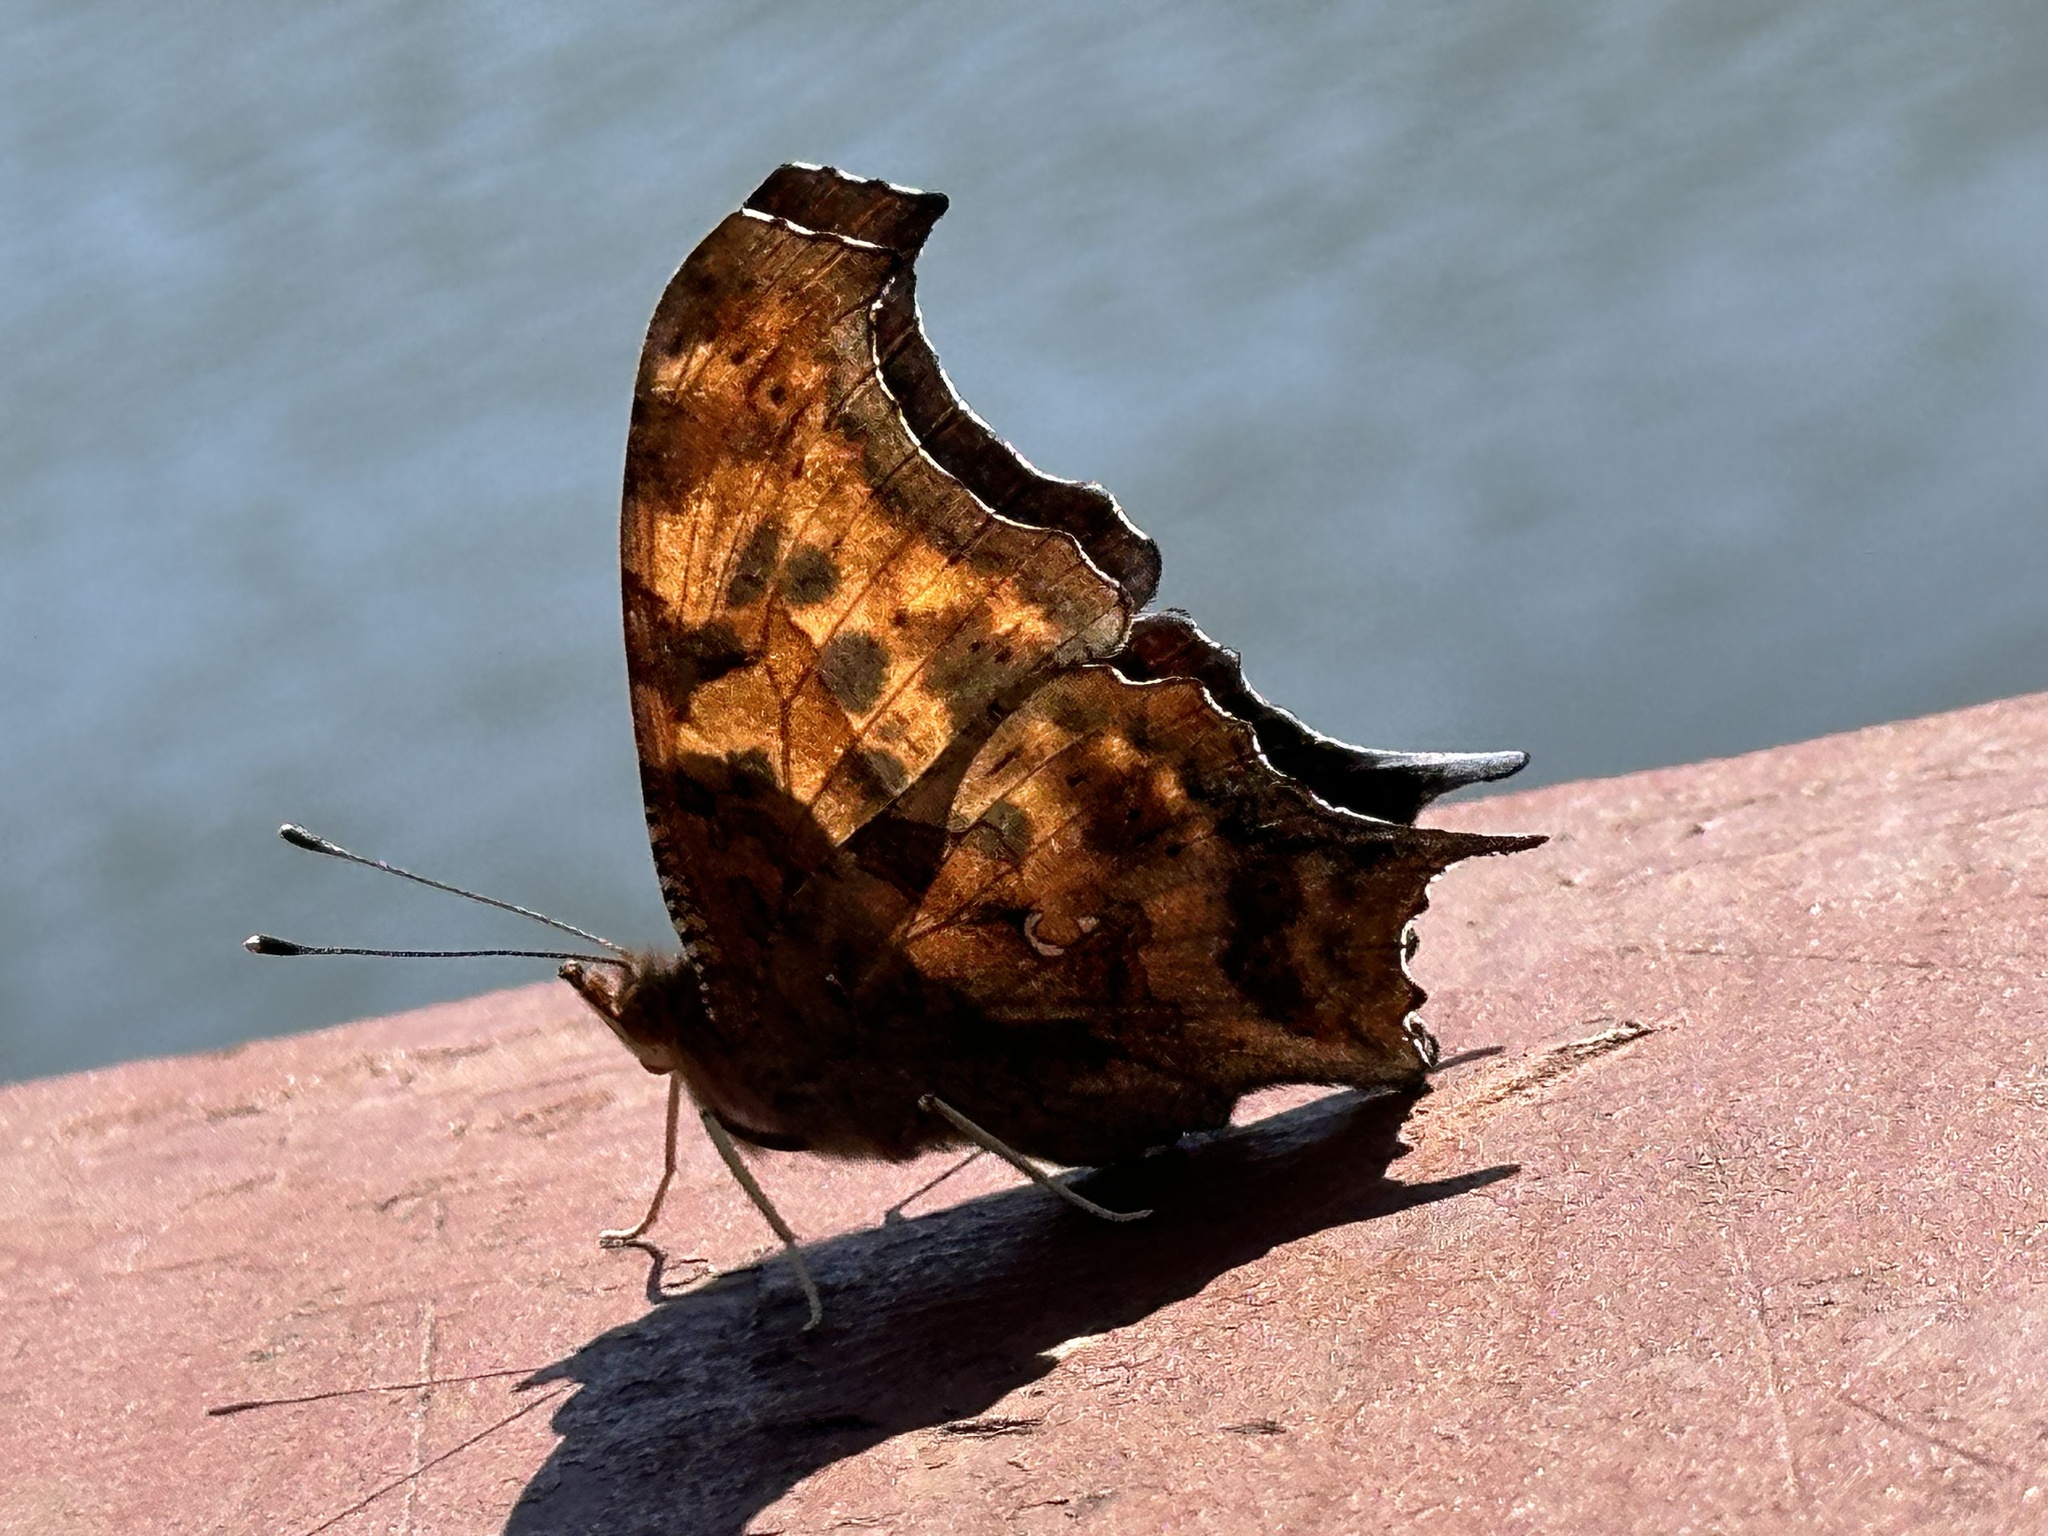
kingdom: Animalia
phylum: Arthropoda
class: Insecta
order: Lepidoptera
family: Nymphalidae
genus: Polygonia
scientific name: Polygonia interrogationis
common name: Question mark
